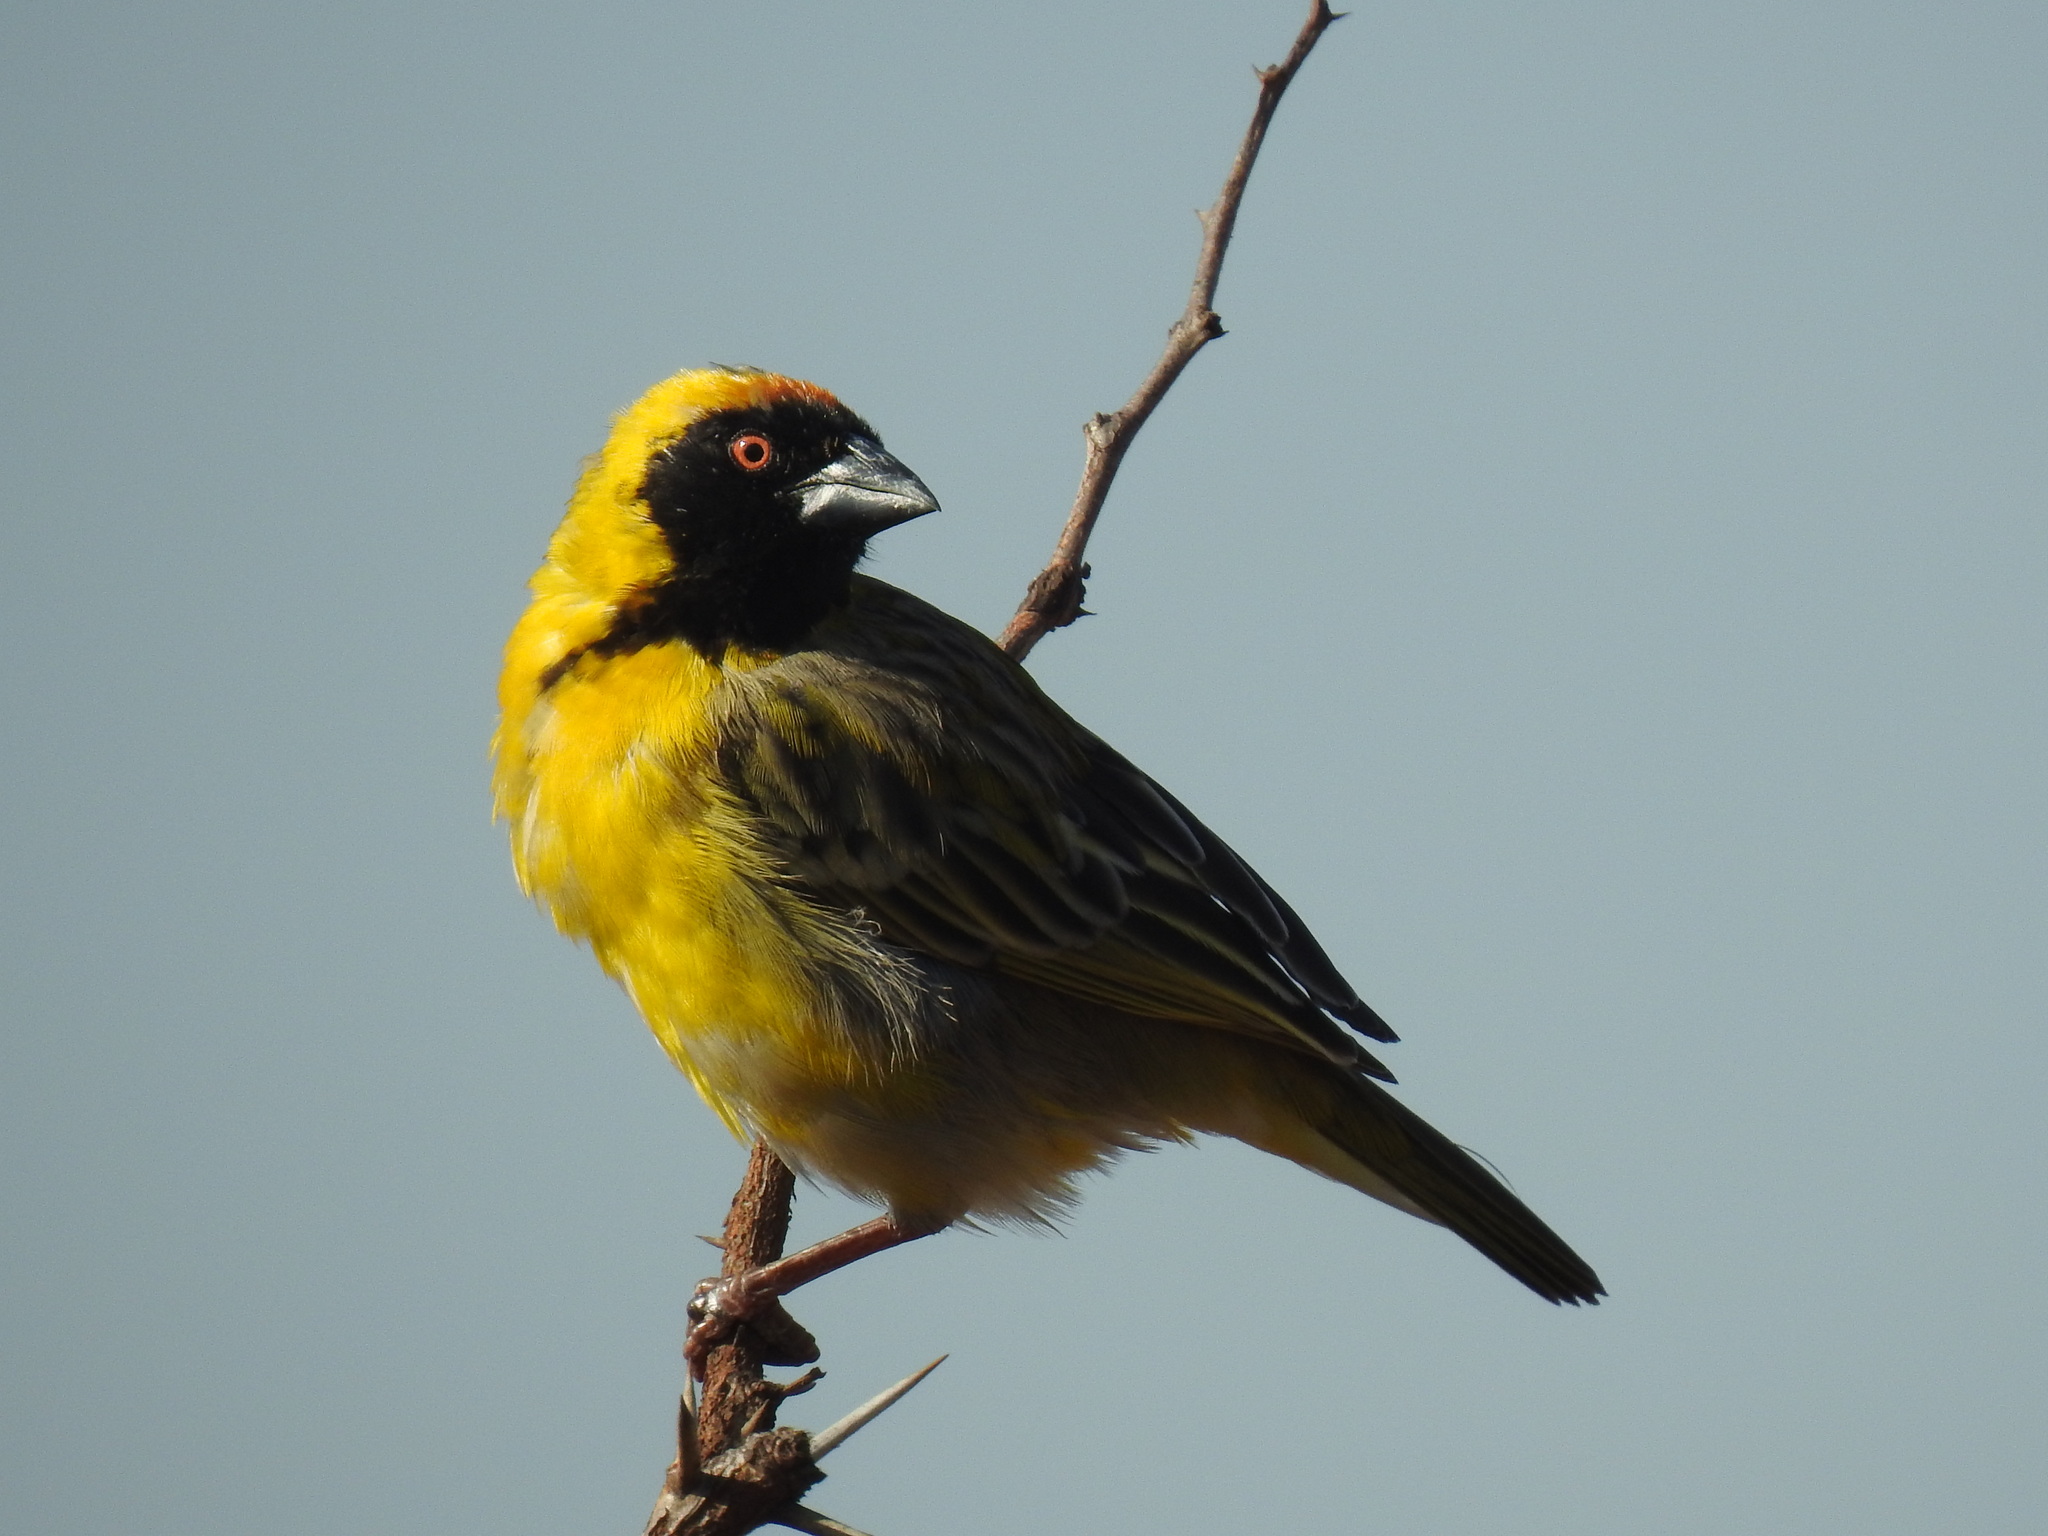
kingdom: Animalia
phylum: Chordata
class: Aves
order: Passeriformes
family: Ploceidae
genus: Ploceus
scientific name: Ploceus velatus
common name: Southern masked weaver
